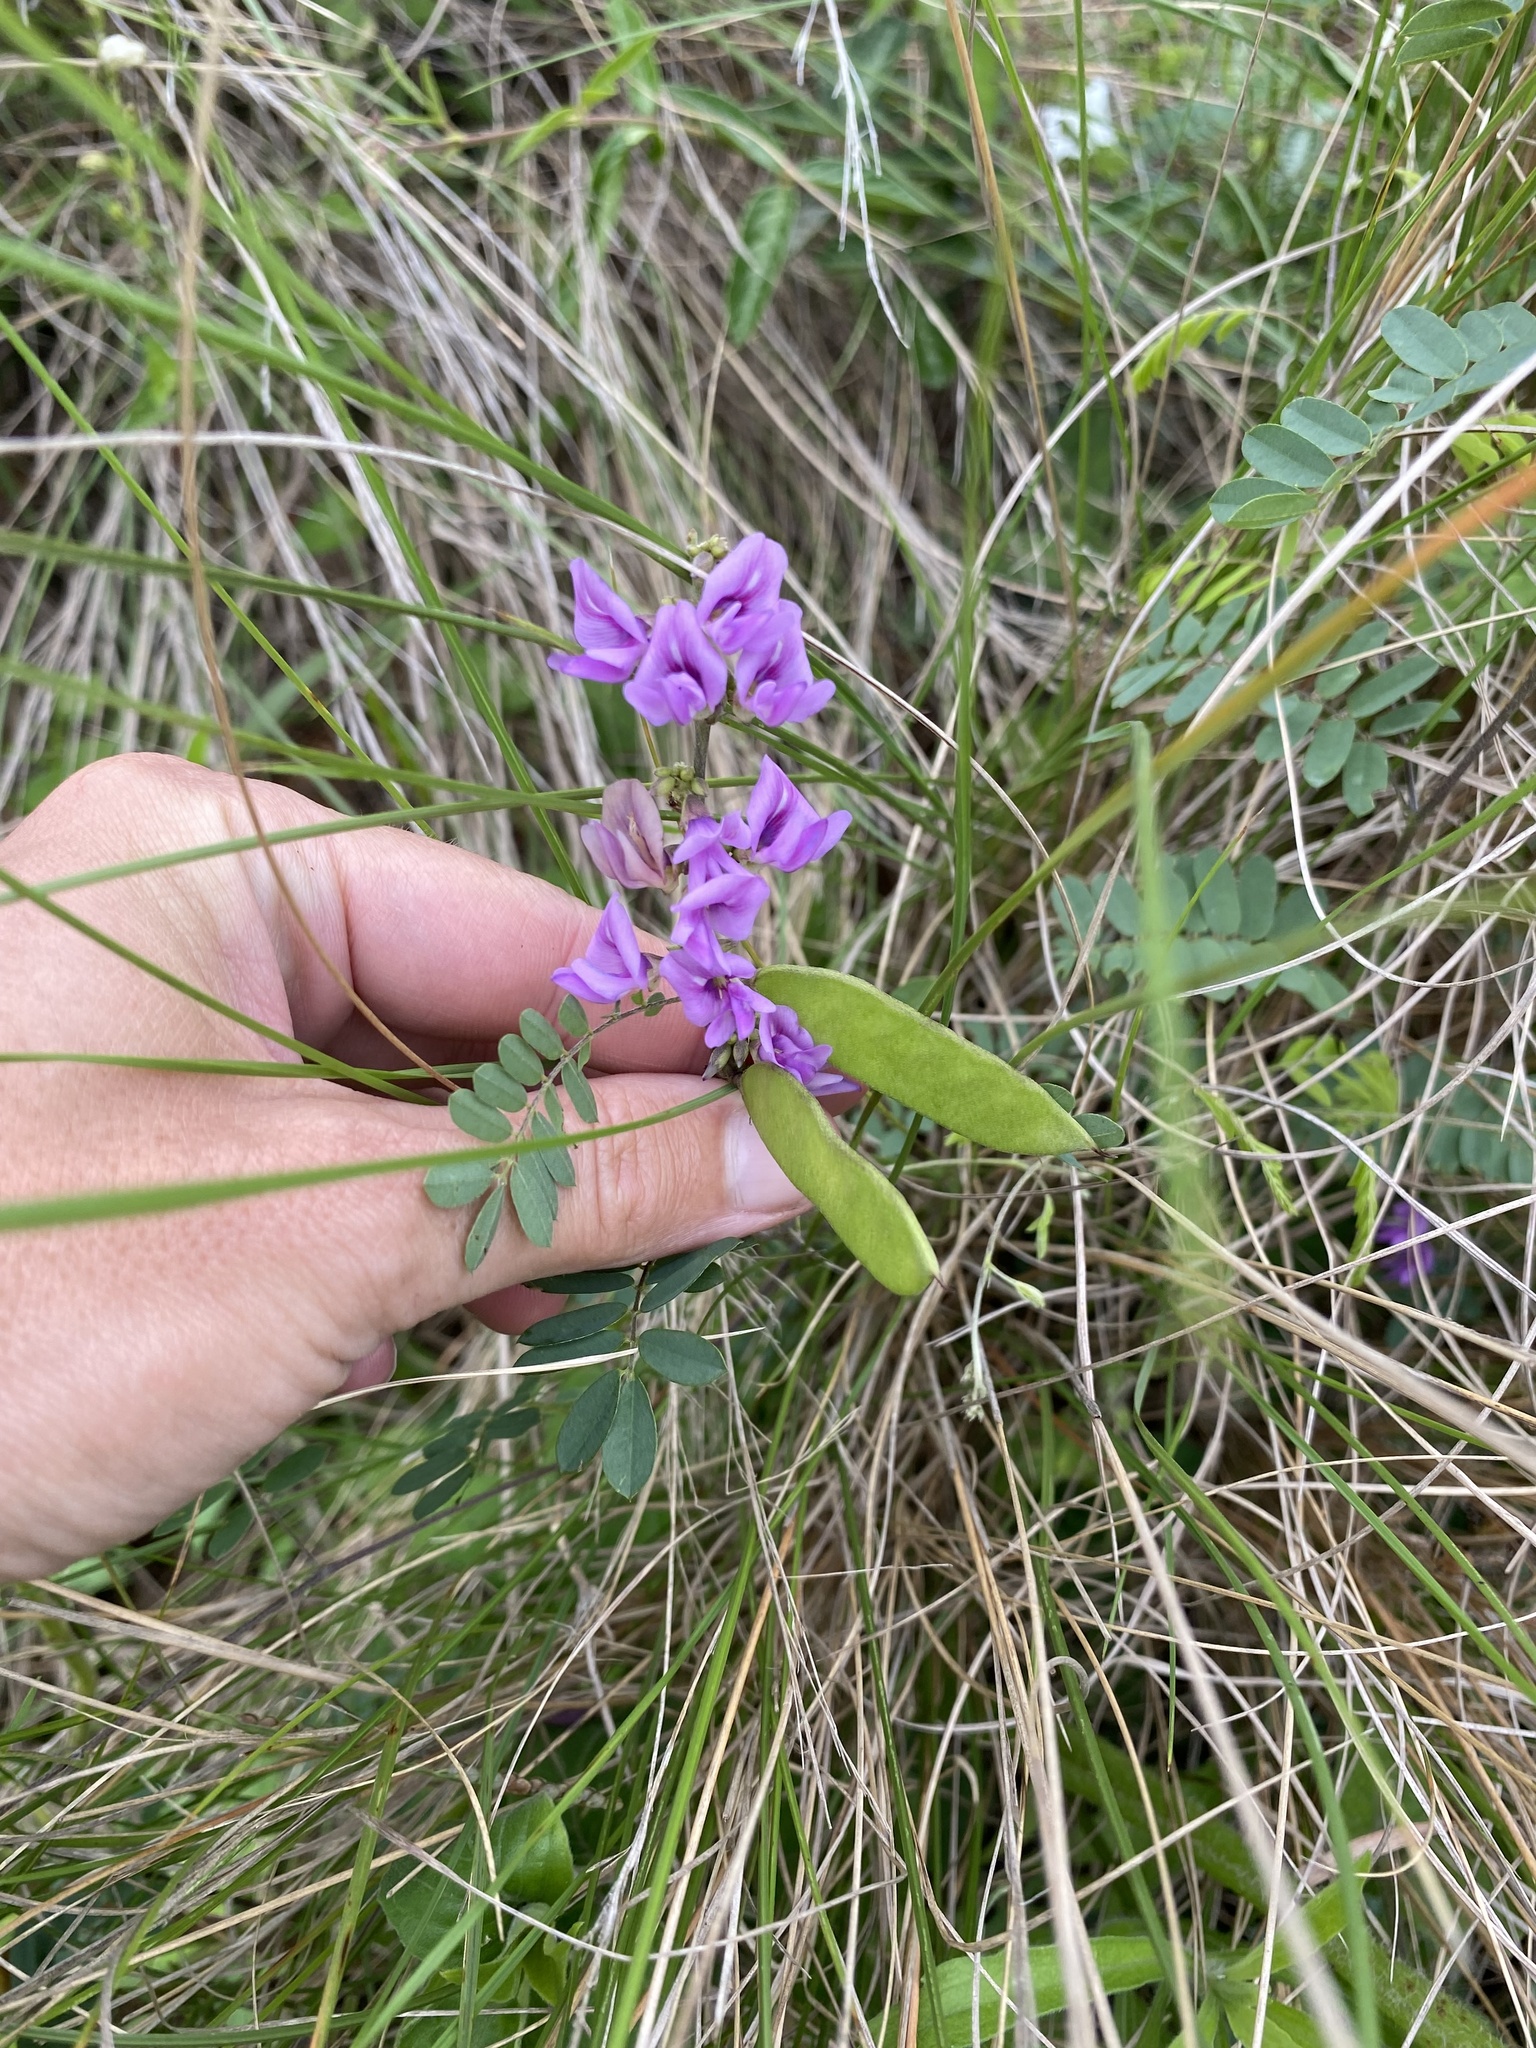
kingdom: Plantae
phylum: Tracheophyta
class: Magnoliopsida
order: Fabales
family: Fabaceae
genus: Abrus
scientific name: Abrus laevigatus
